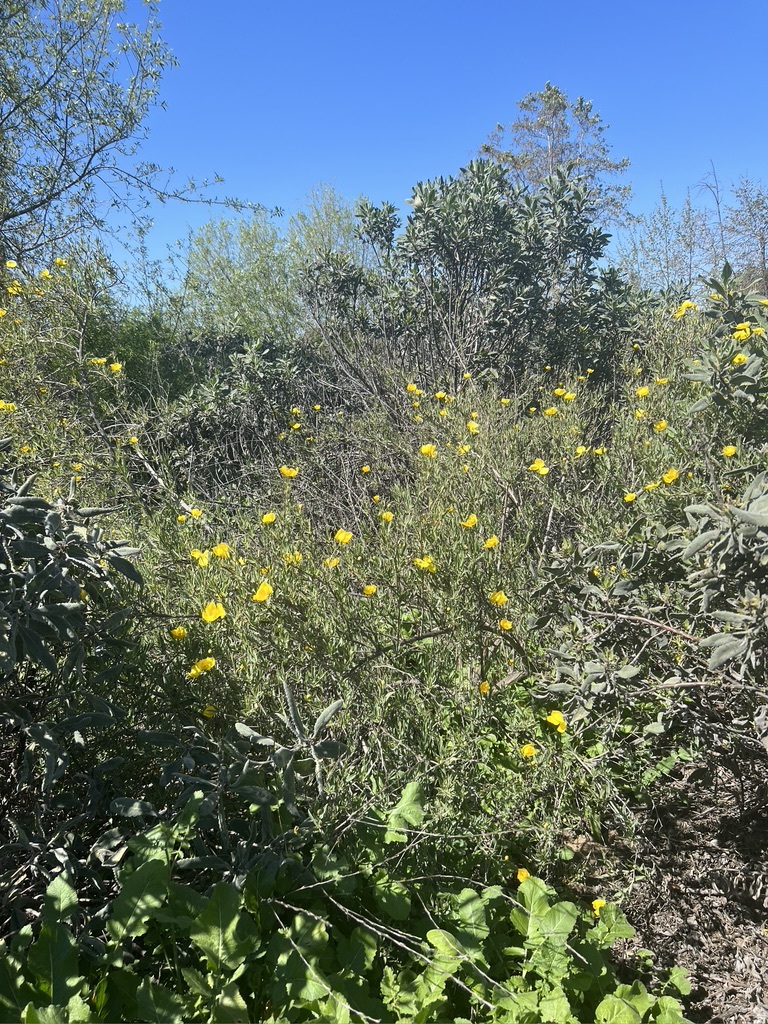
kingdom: Plantae
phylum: Tracheophyta
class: Magnoliopsida
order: Ranunculales
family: Papaveraceae
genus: Dendromecon
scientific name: Dendromecon rigida
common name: Tree poppy
